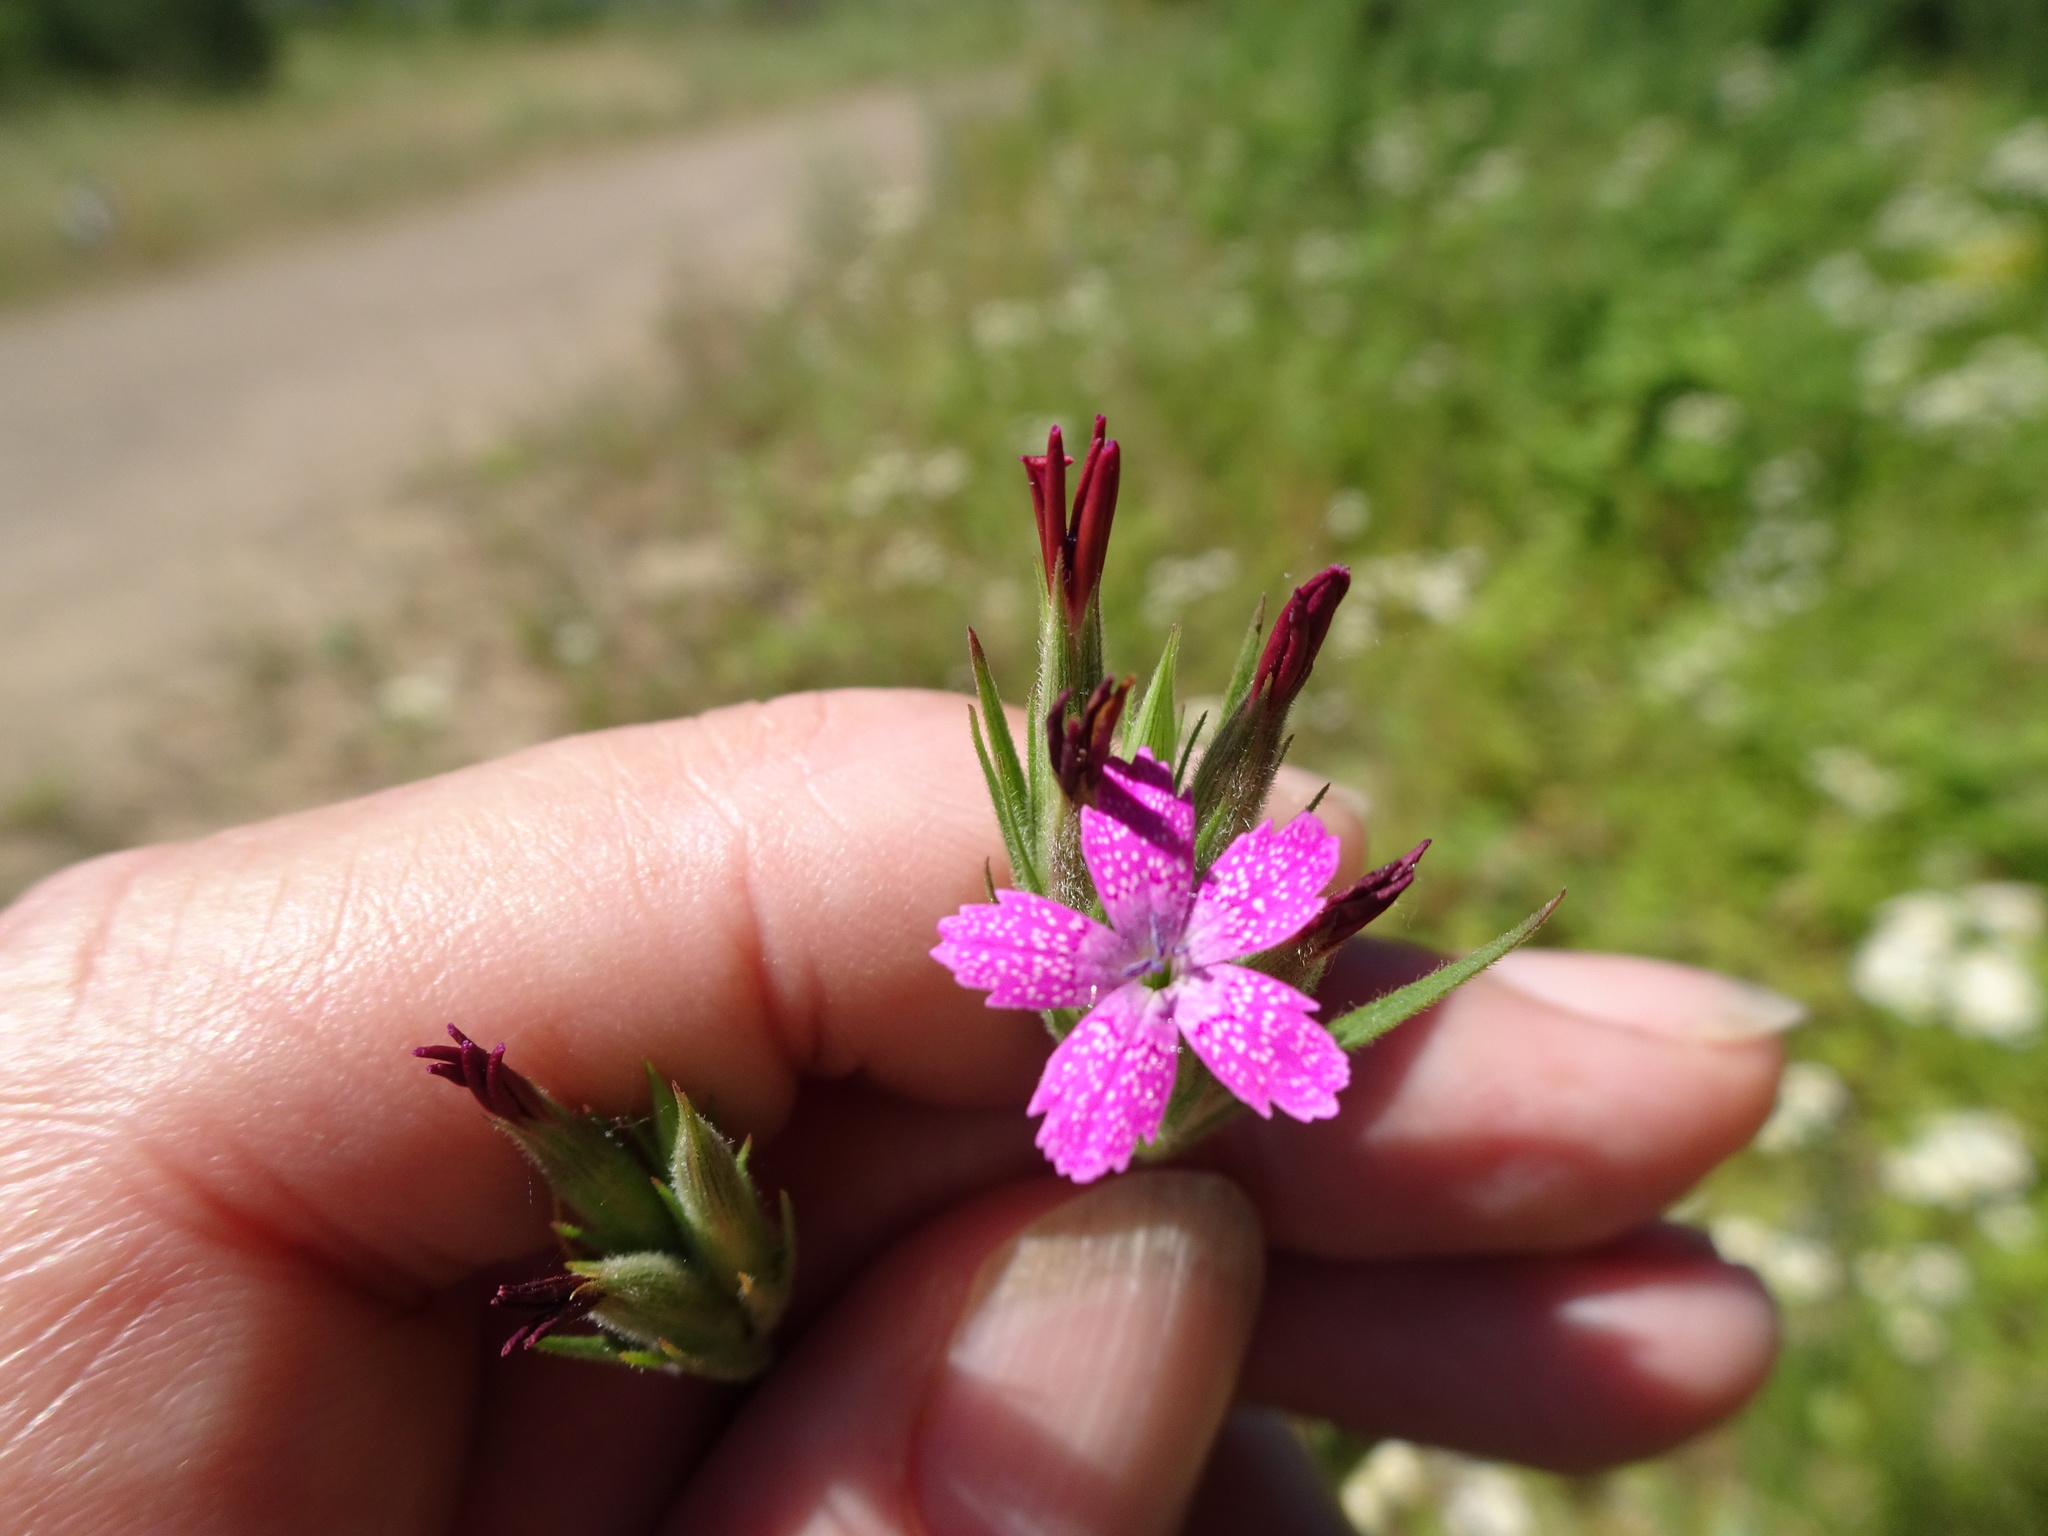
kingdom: Plantae
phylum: Tracheophyta
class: Magnoliopsida
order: Caryophyllales
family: Caryophyllaceae
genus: Dianthus
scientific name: Dianthus armeria
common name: Deptford pink
